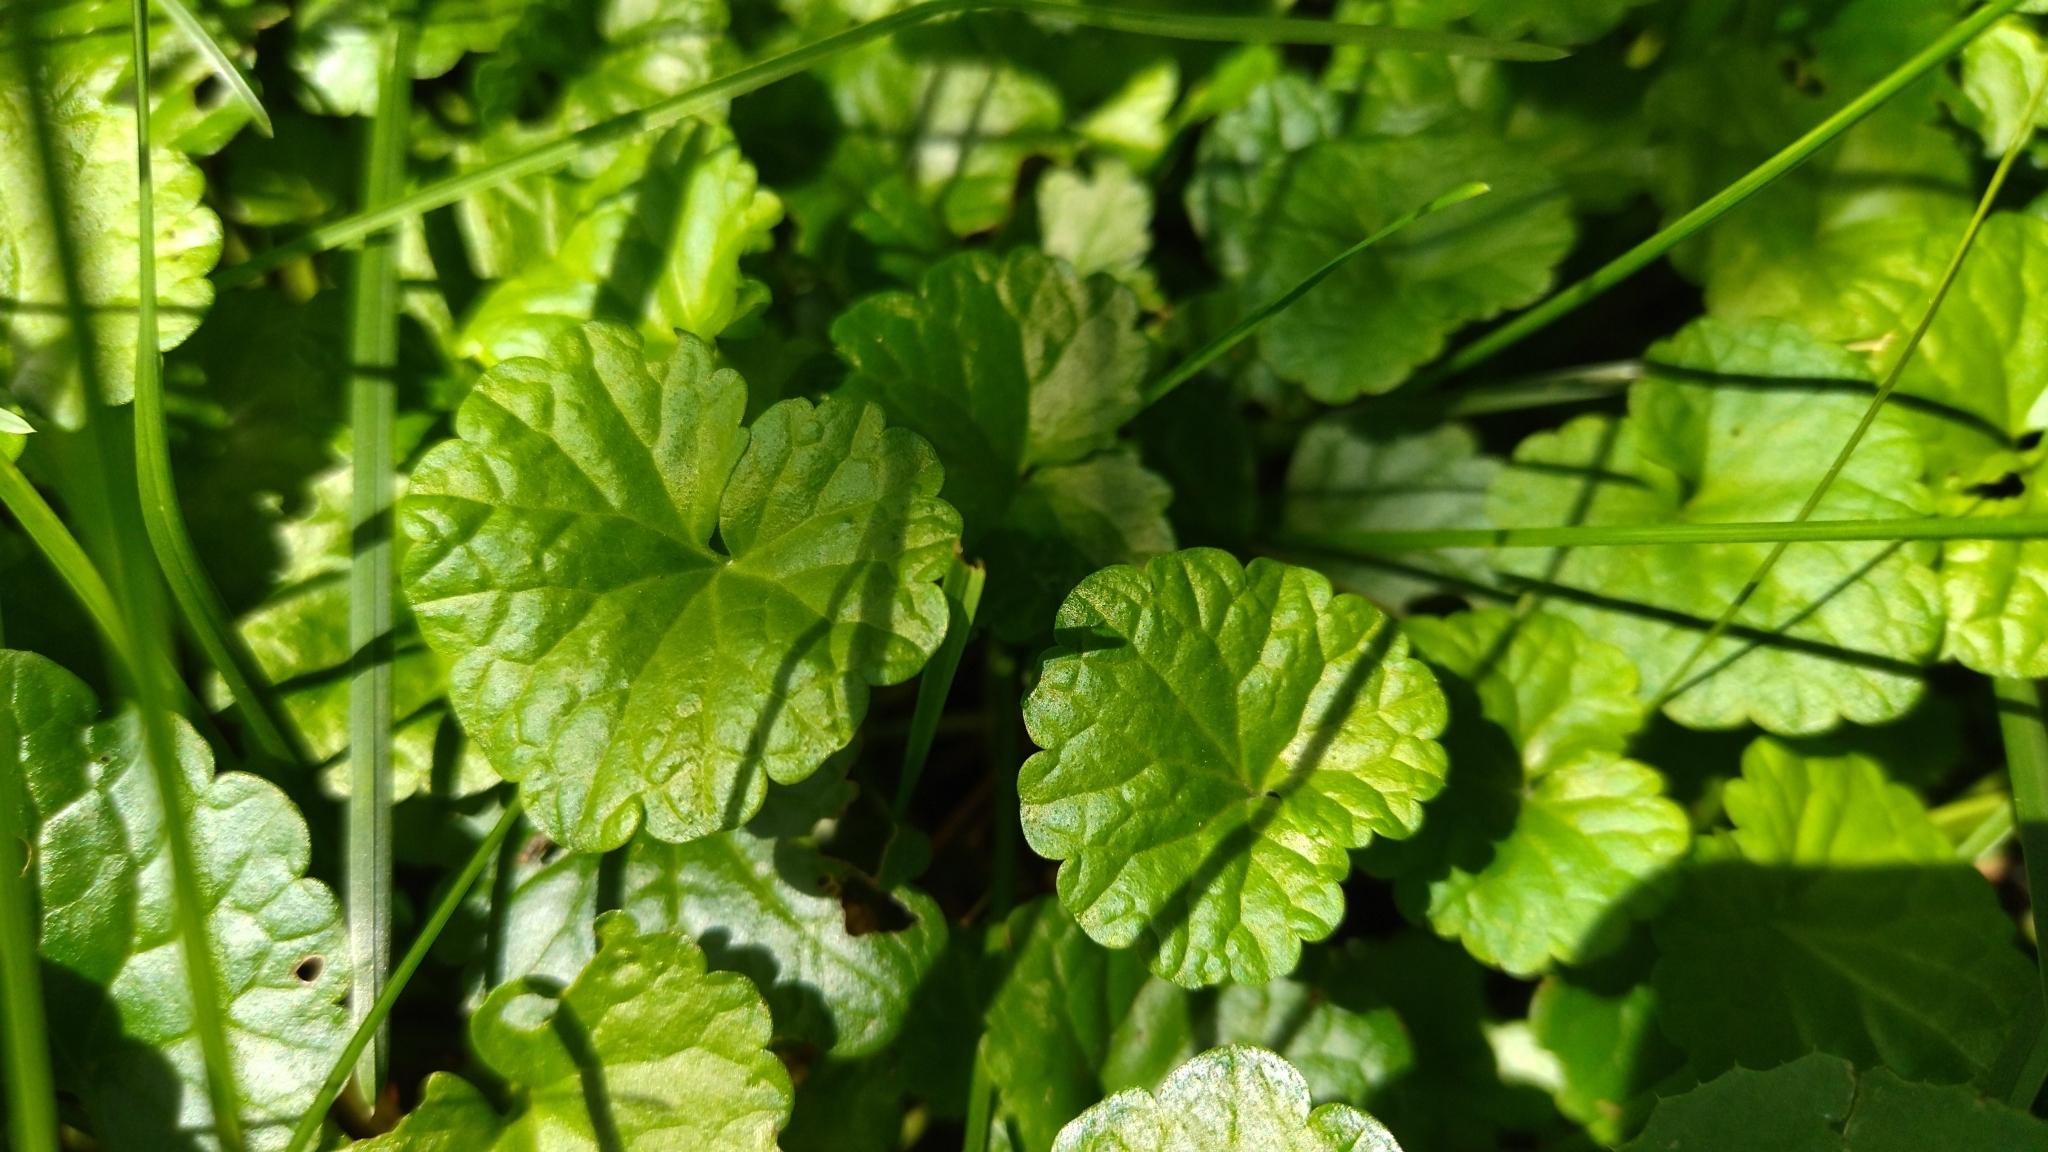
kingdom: Plantae
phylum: Tracheophyta
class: Magnoliopsida
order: Lamiales
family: Lamiaceae
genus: Glechoma
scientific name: Glechoma hederacea
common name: Ground ivy
